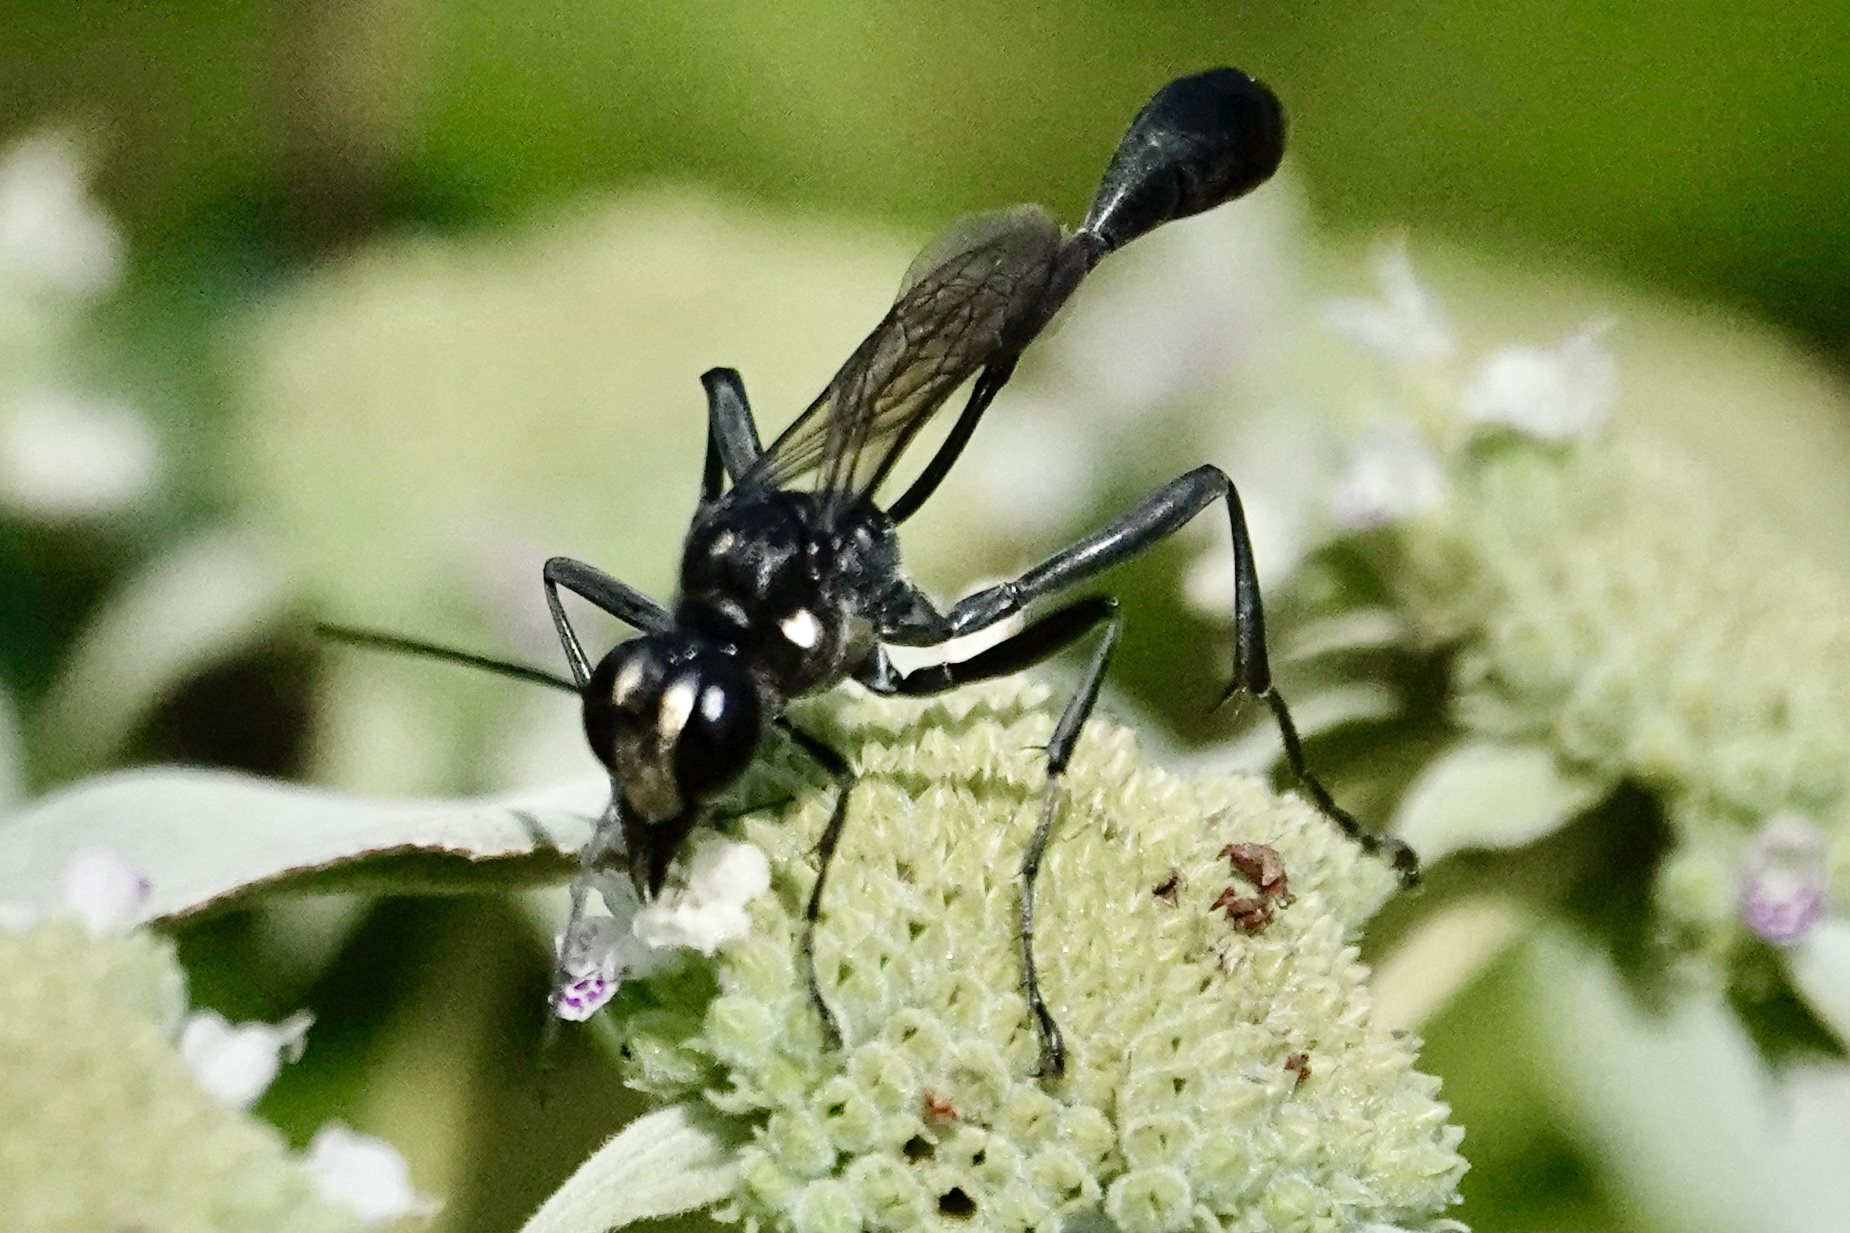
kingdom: Animalia
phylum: Arthropoda
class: Insecta
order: Hymenoptera
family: Sphecidae
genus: Eremnophila
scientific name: Eremnophila aureonotata
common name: Gold-marked thread-waisted wasp
